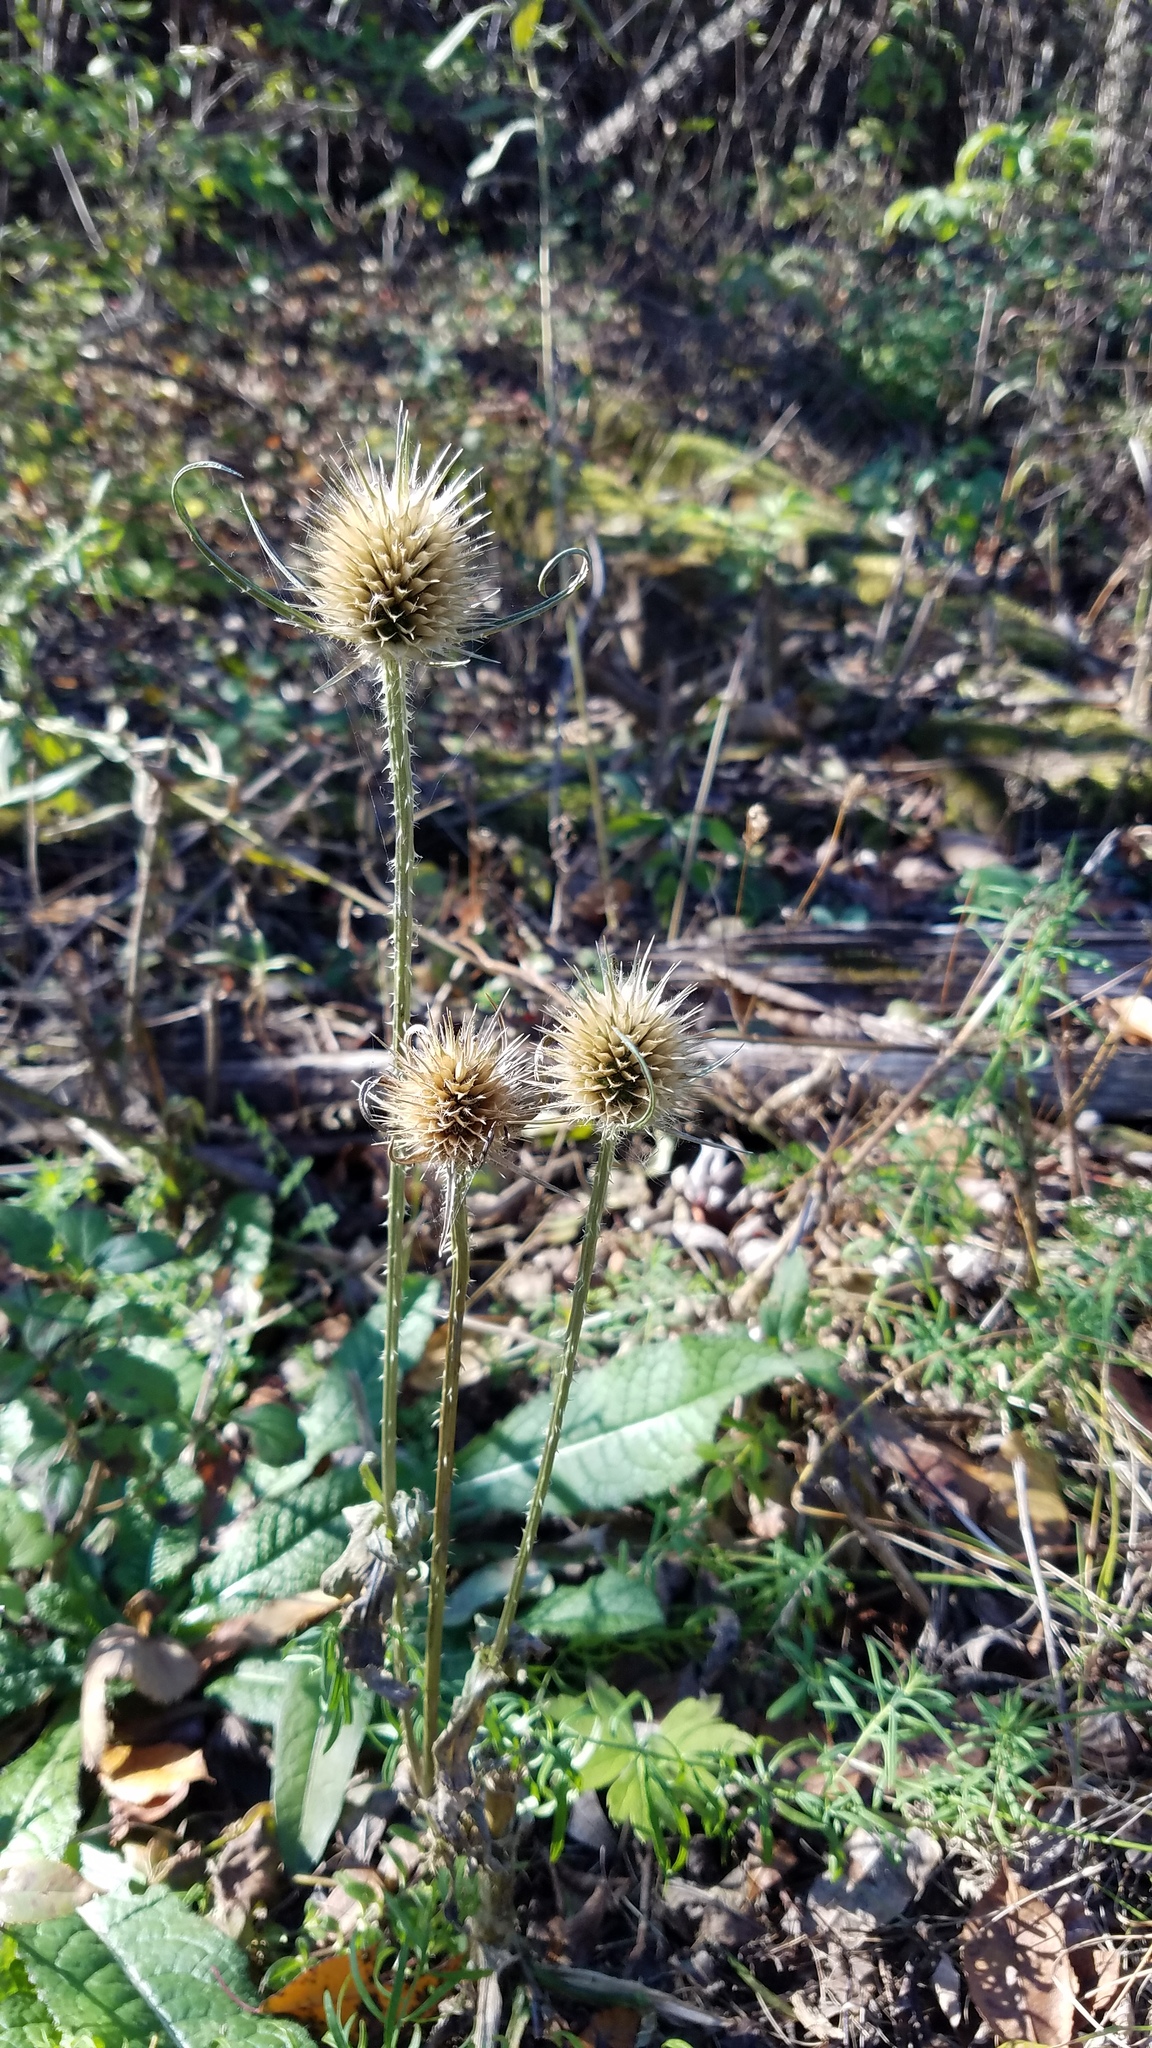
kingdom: Plantae
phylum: Tracheophyta
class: Magnoliopsida
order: Dipsacales
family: Caprifoliaceae
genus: Dipsacus
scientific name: Dipsacus fullonum
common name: Teasel
